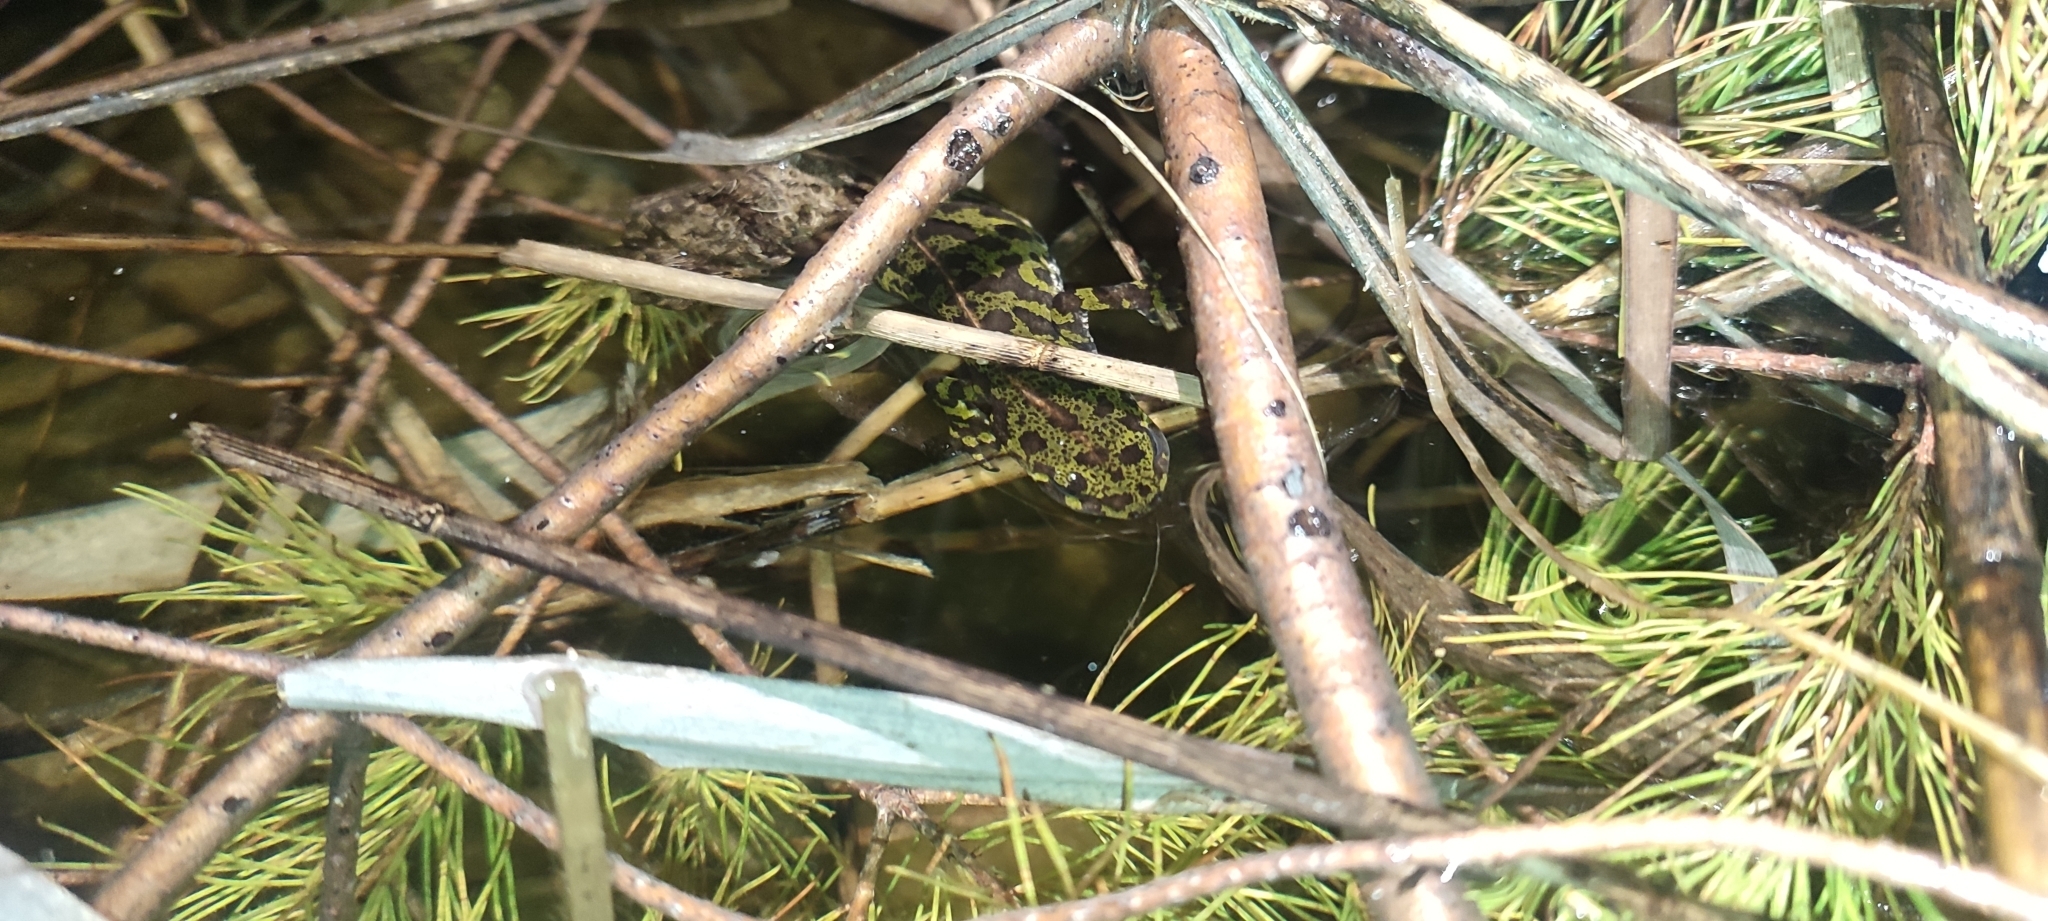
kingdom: Animalia
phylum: Chordata
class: Amphibia
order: Caudata
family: Salamandridae
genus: Triturus
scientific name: Triturus marmoratus
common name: Marbled newt
